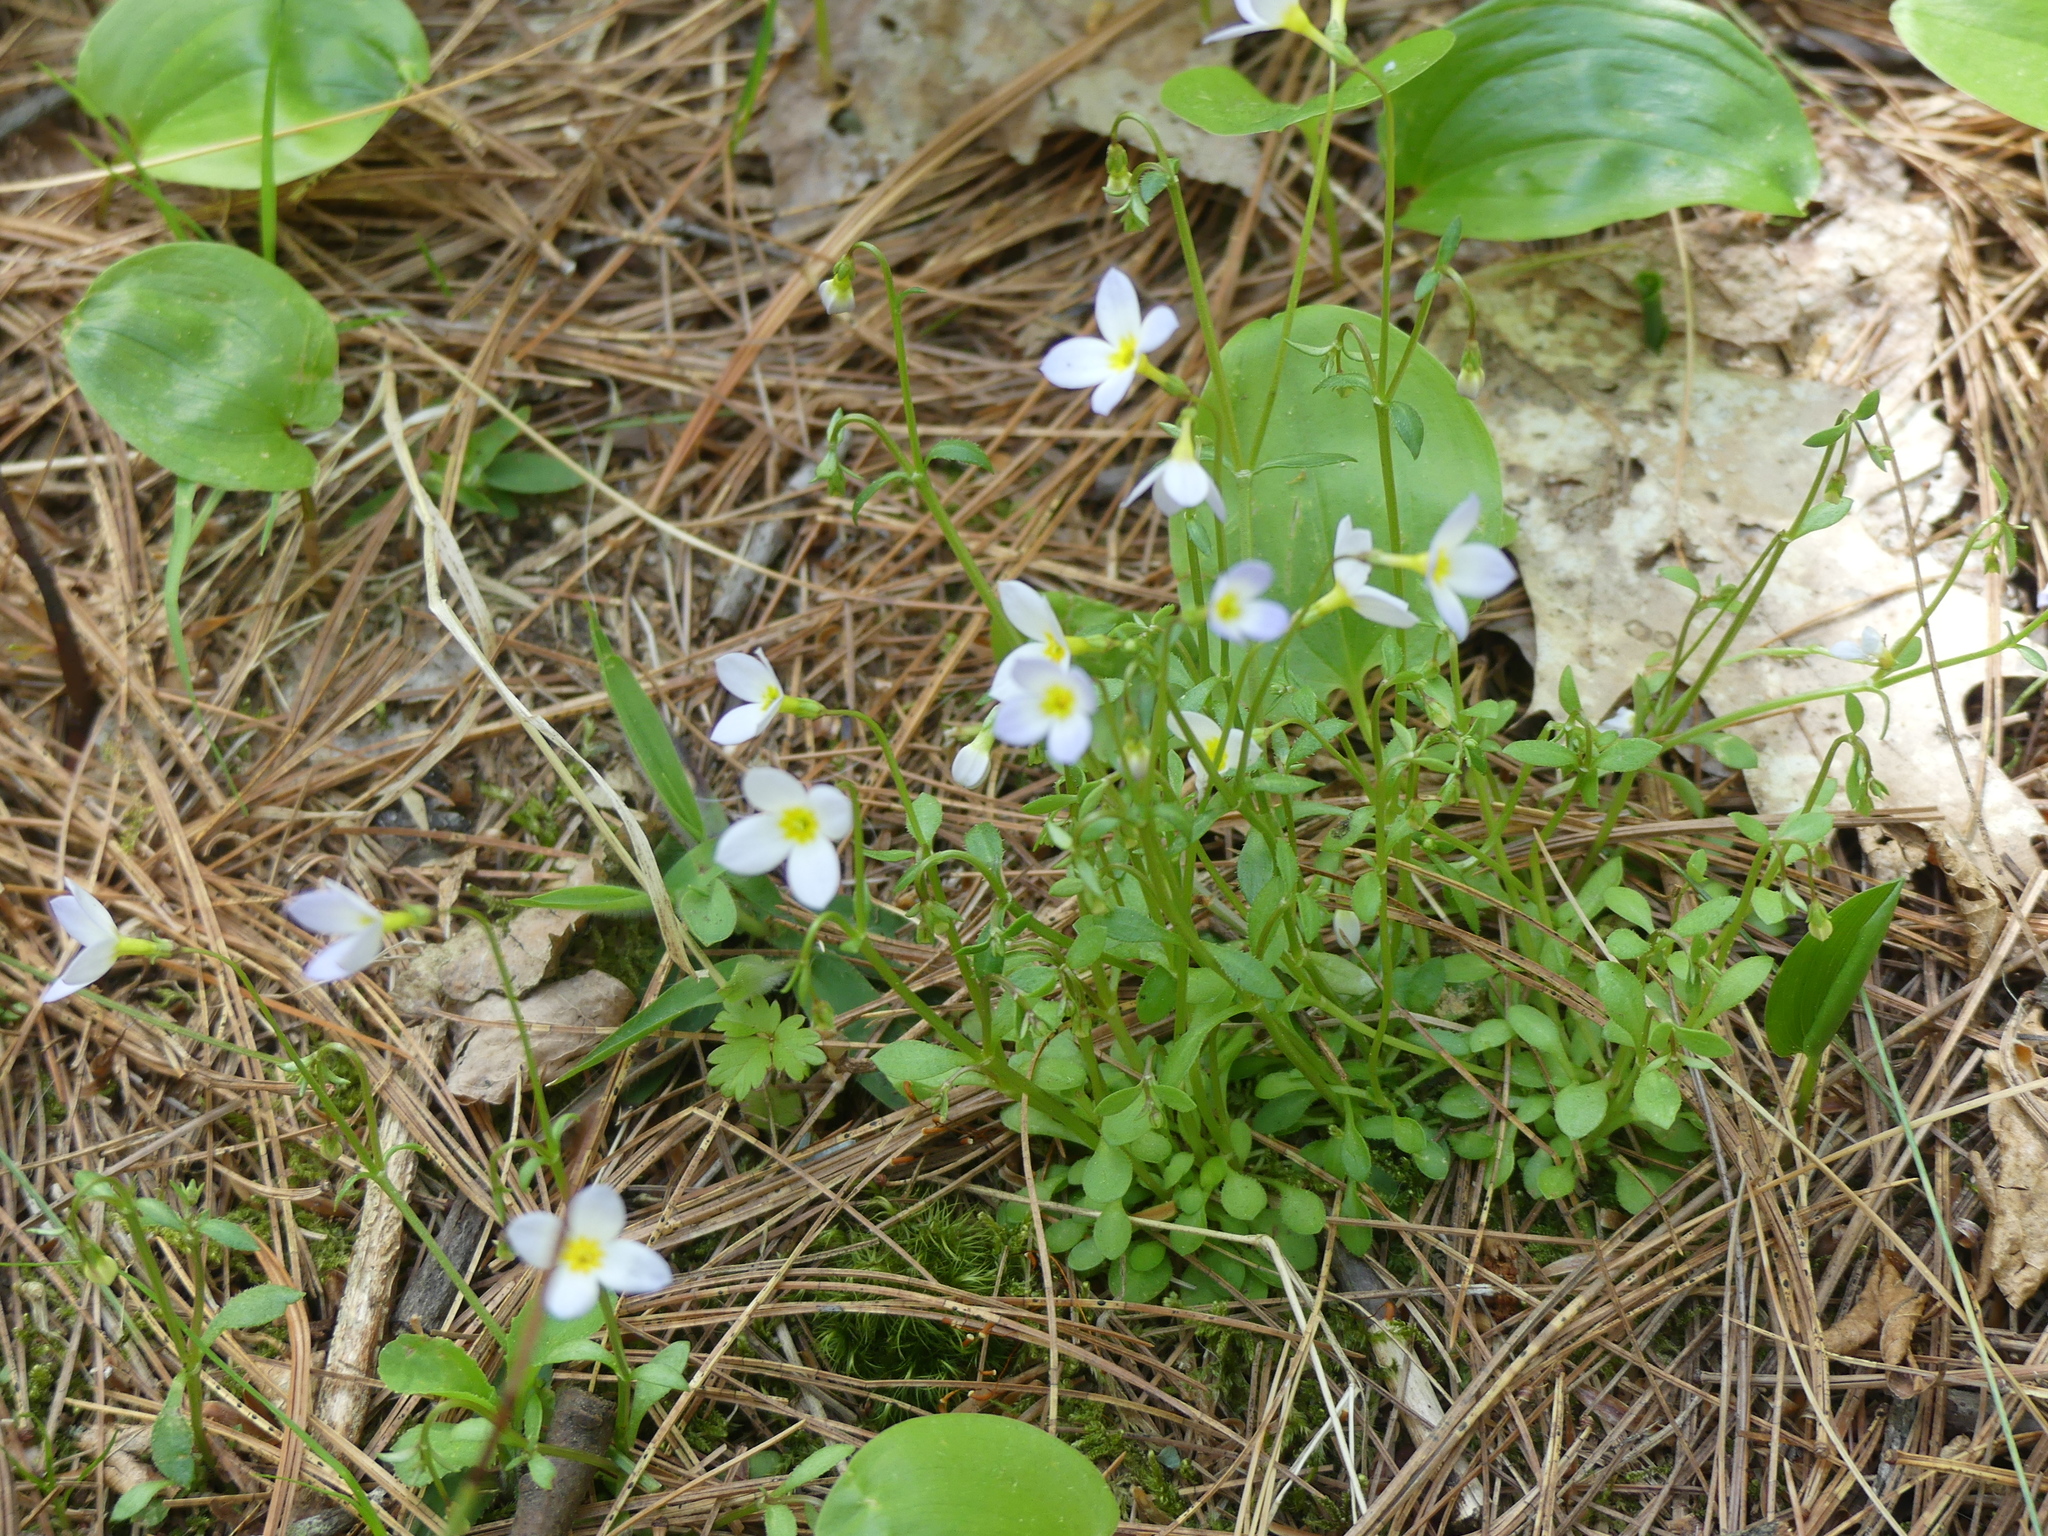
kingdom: Plantae
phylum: Tracheophyta
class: Magnoliopsida
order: Gentianales
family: Rubiaceae
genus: Houstonia
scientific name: Houstonia caerulea
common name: Bluets
